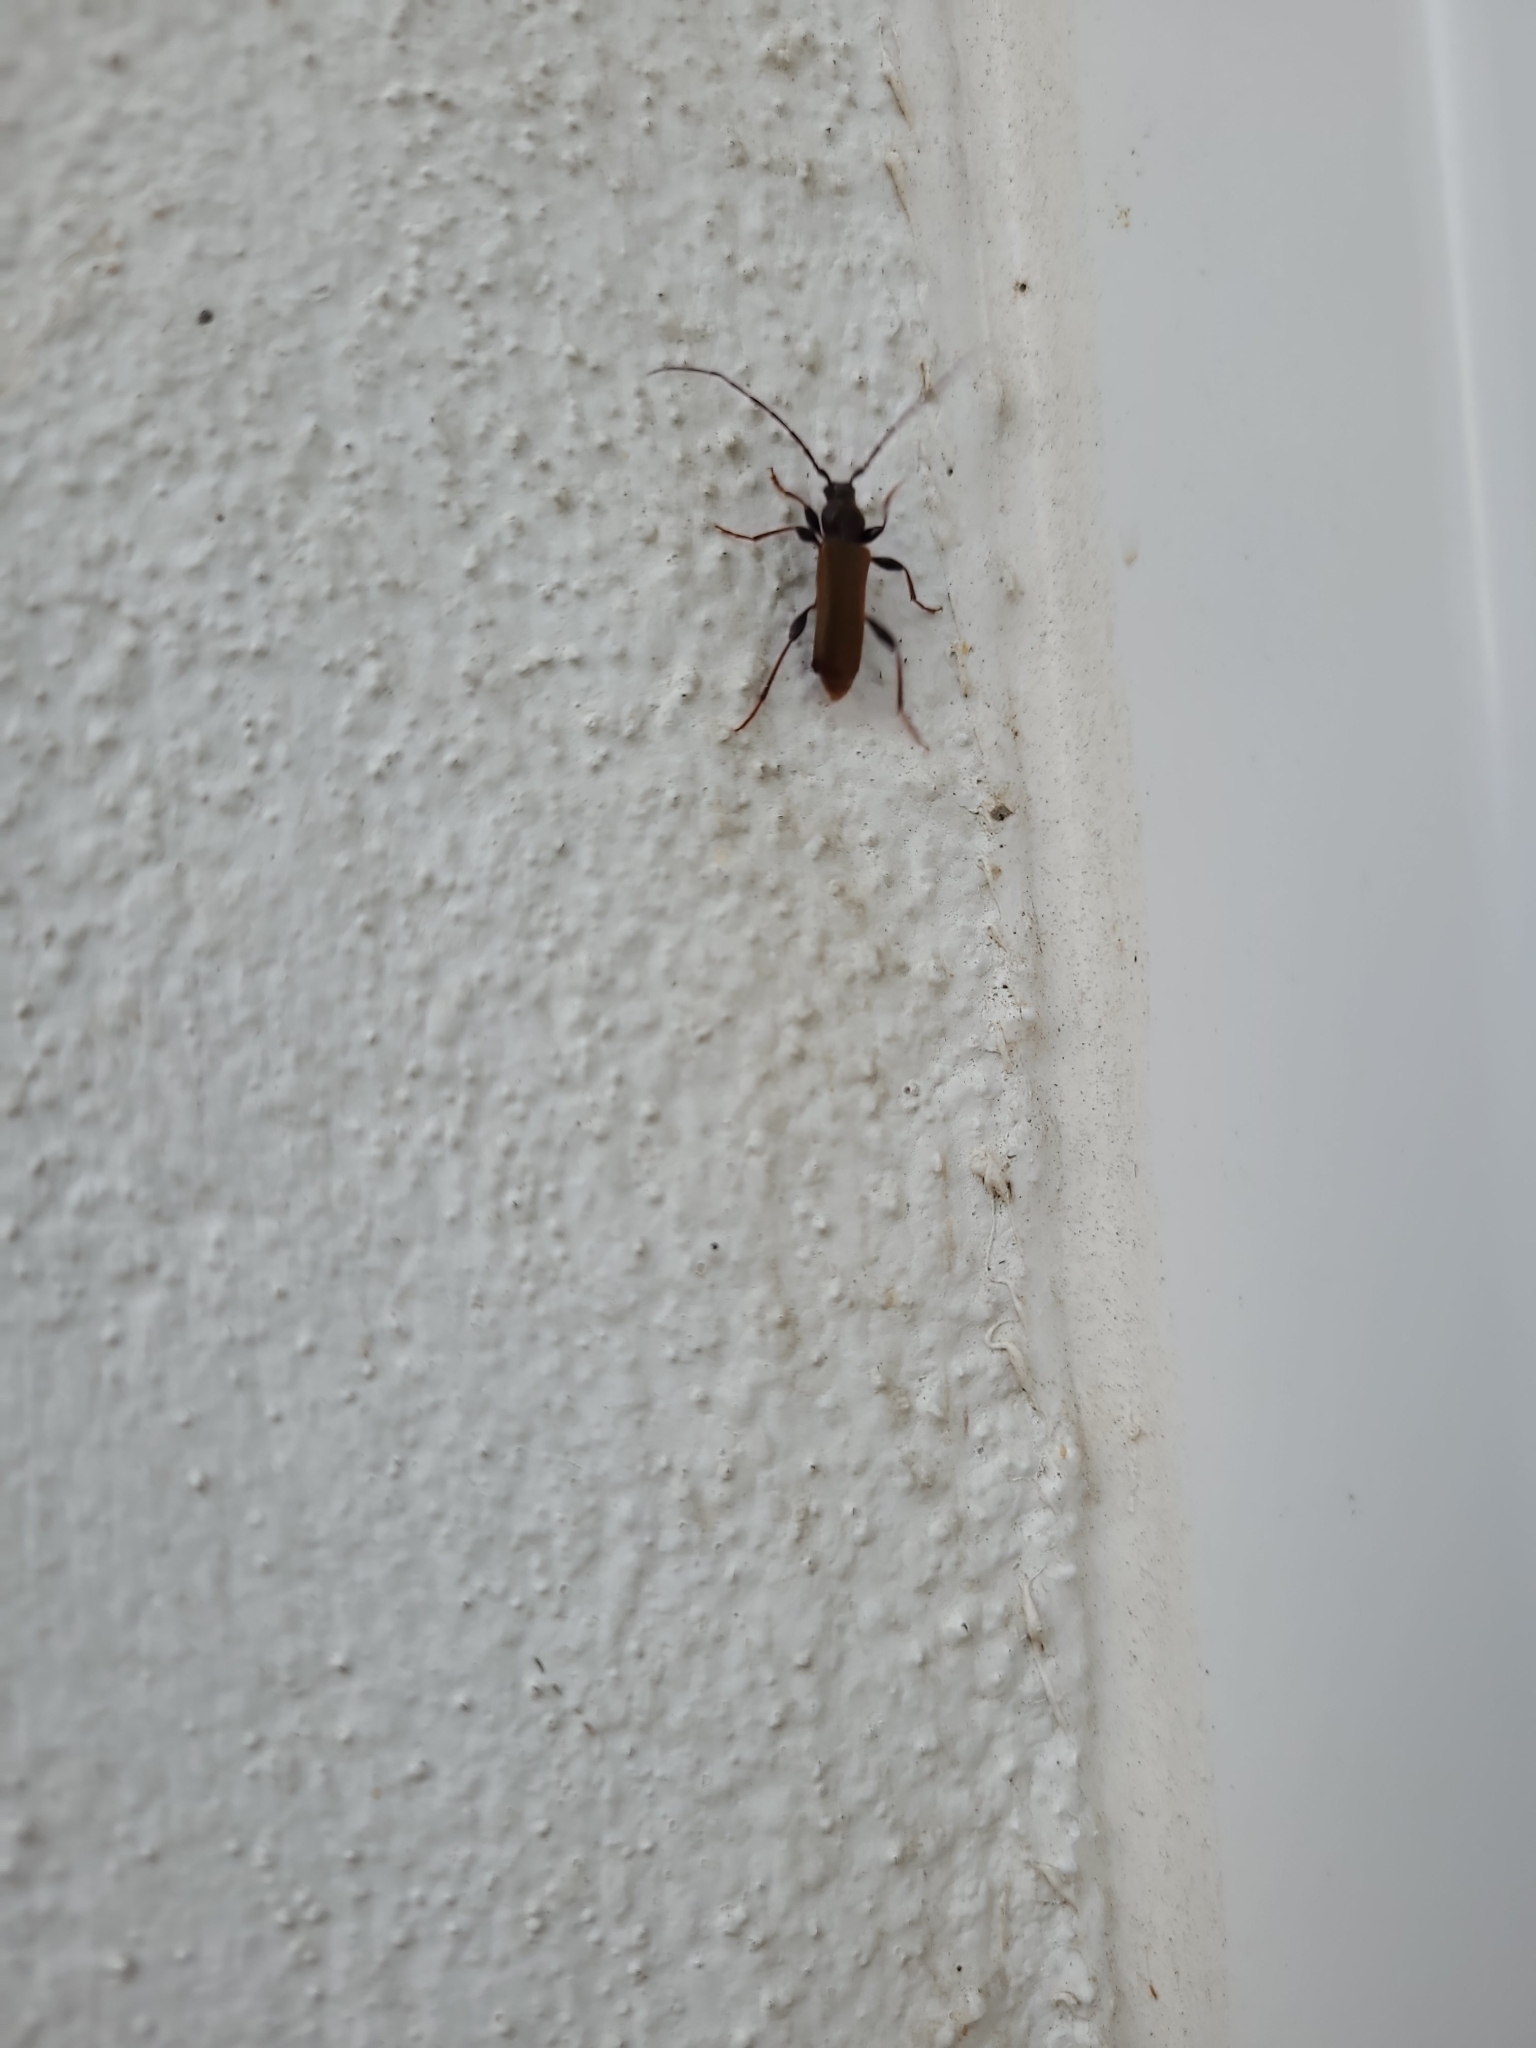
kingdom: Animalia
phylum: Arthropoda
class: Insecta
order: Coleoptera
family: Cerambycidae
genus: Phymatodes
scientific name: Phymatodes testaceus
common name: Long-horned beetle
